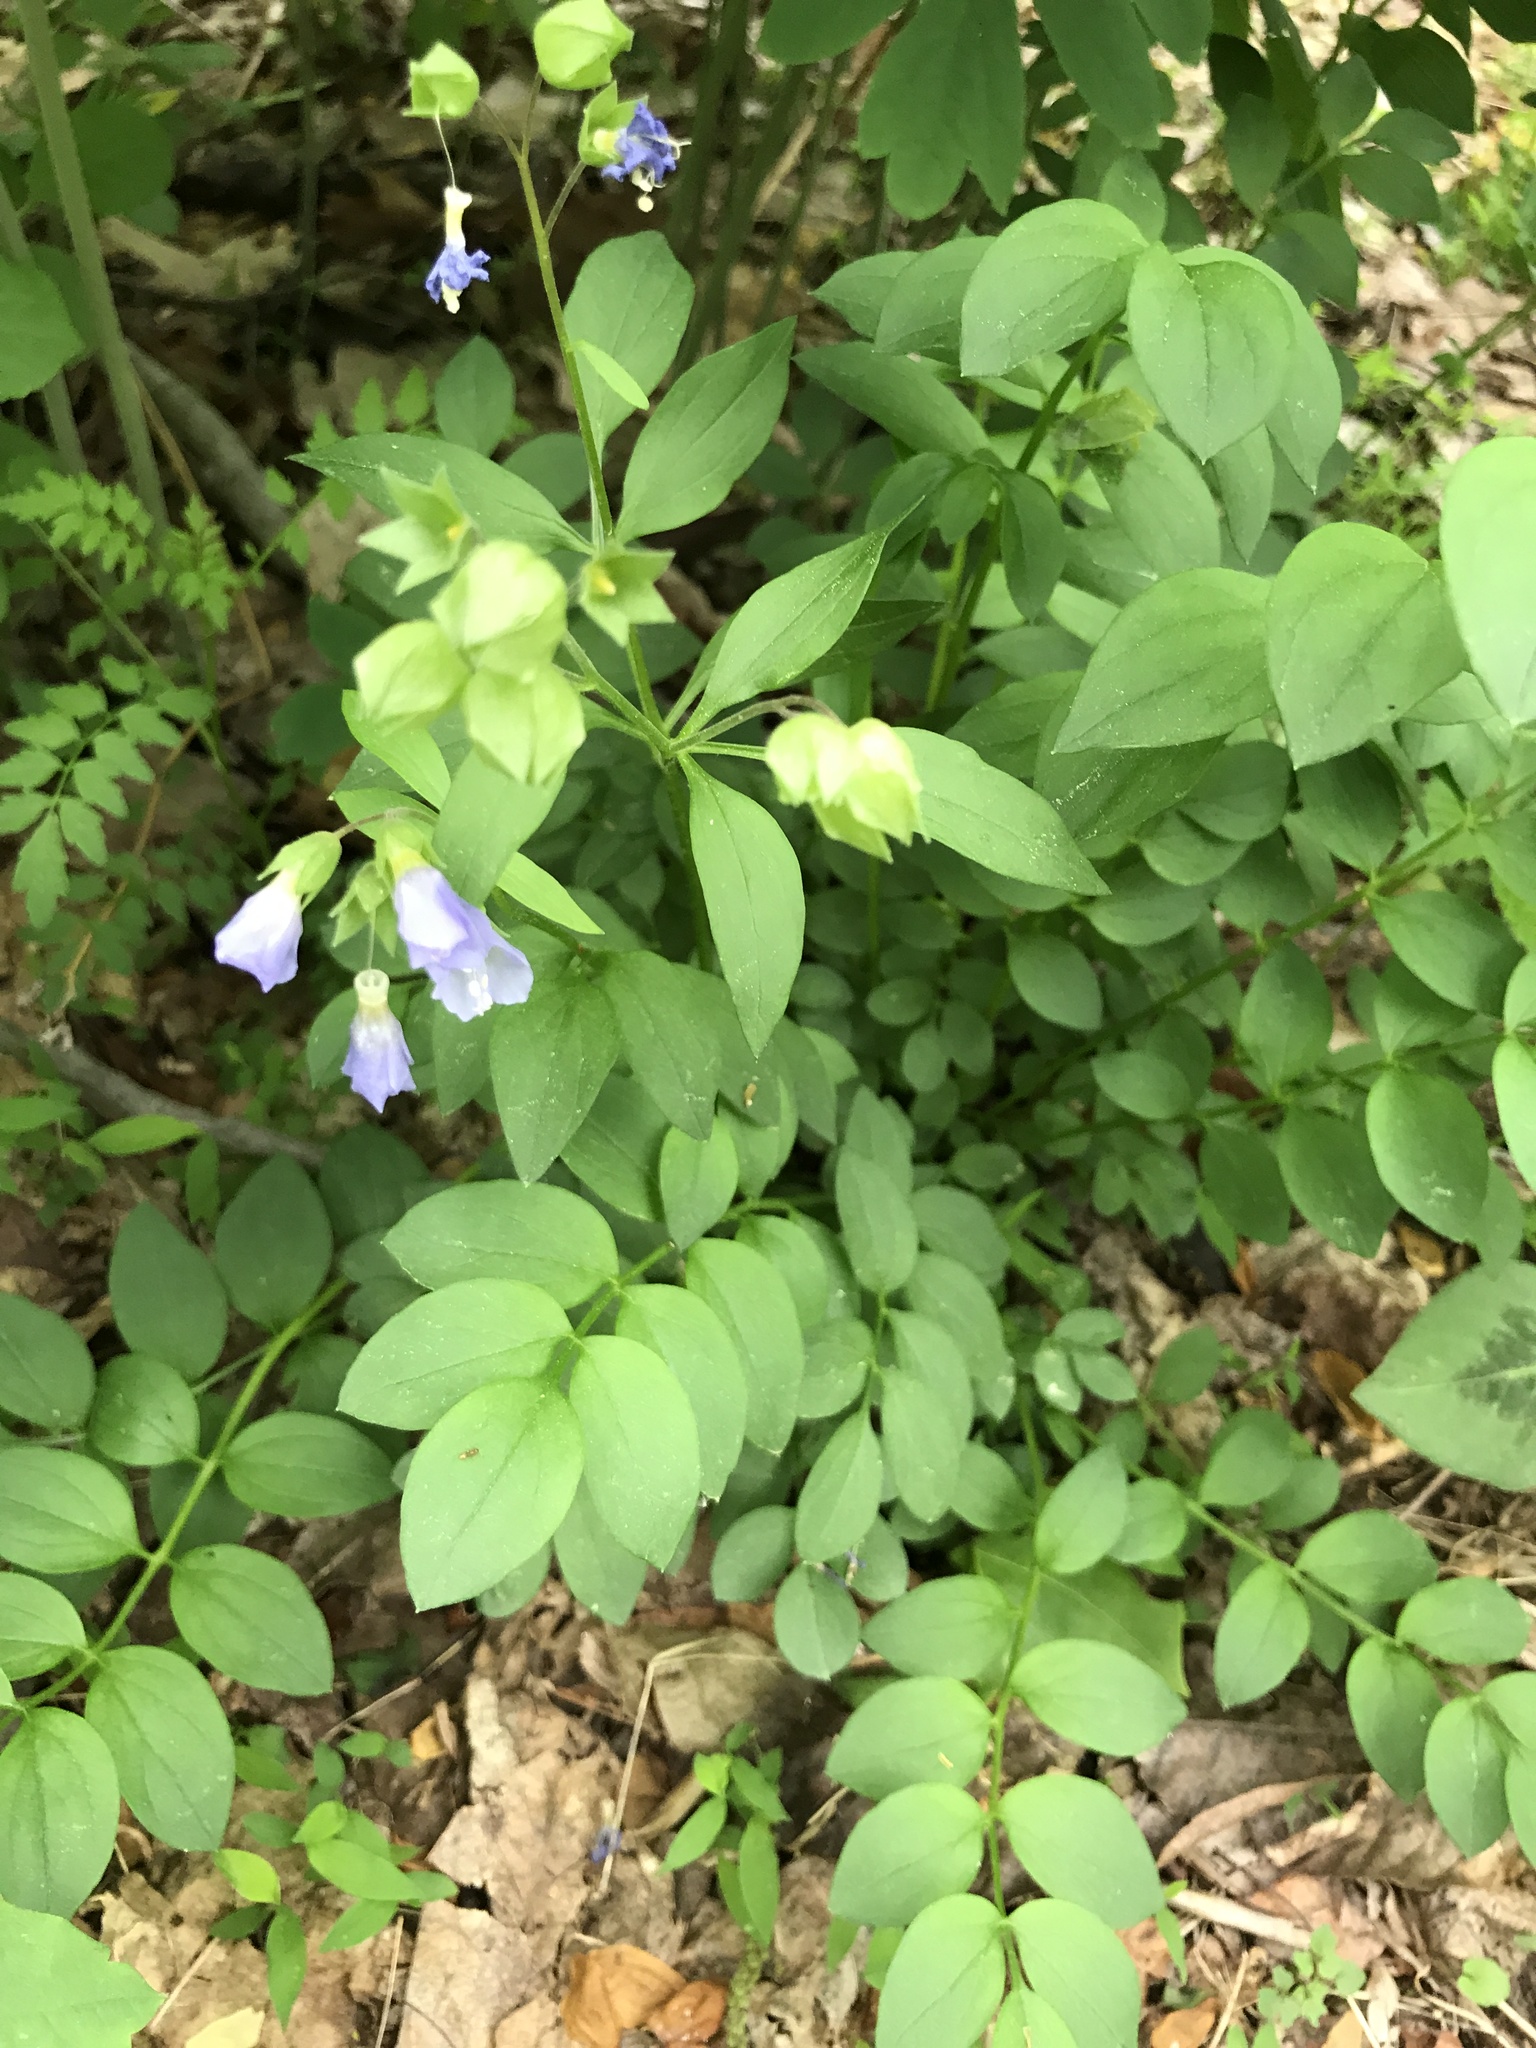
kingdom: Plantae
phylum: Tracheophyta
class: Magnoliopsida
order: Ericales
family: Polemoniaceae
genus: Polemonium
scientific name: Polemonium reptans
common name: Creeping jacob's-ladder
